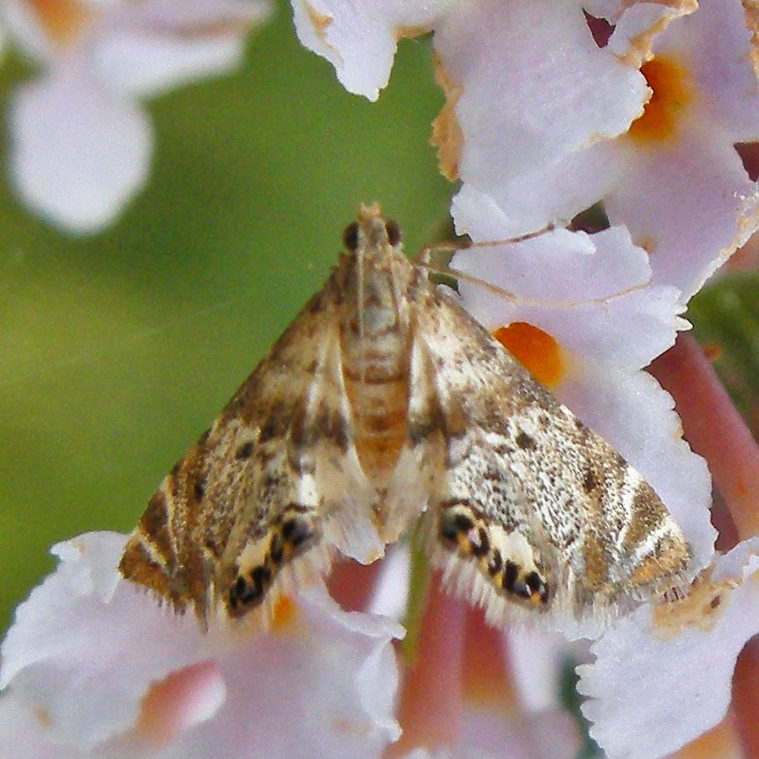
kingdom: Animalia
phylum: Arthropoda
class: Insecta
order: Lepidoptera
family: Crambidae
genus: Petrophila
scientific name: Petrophila fulicalis
